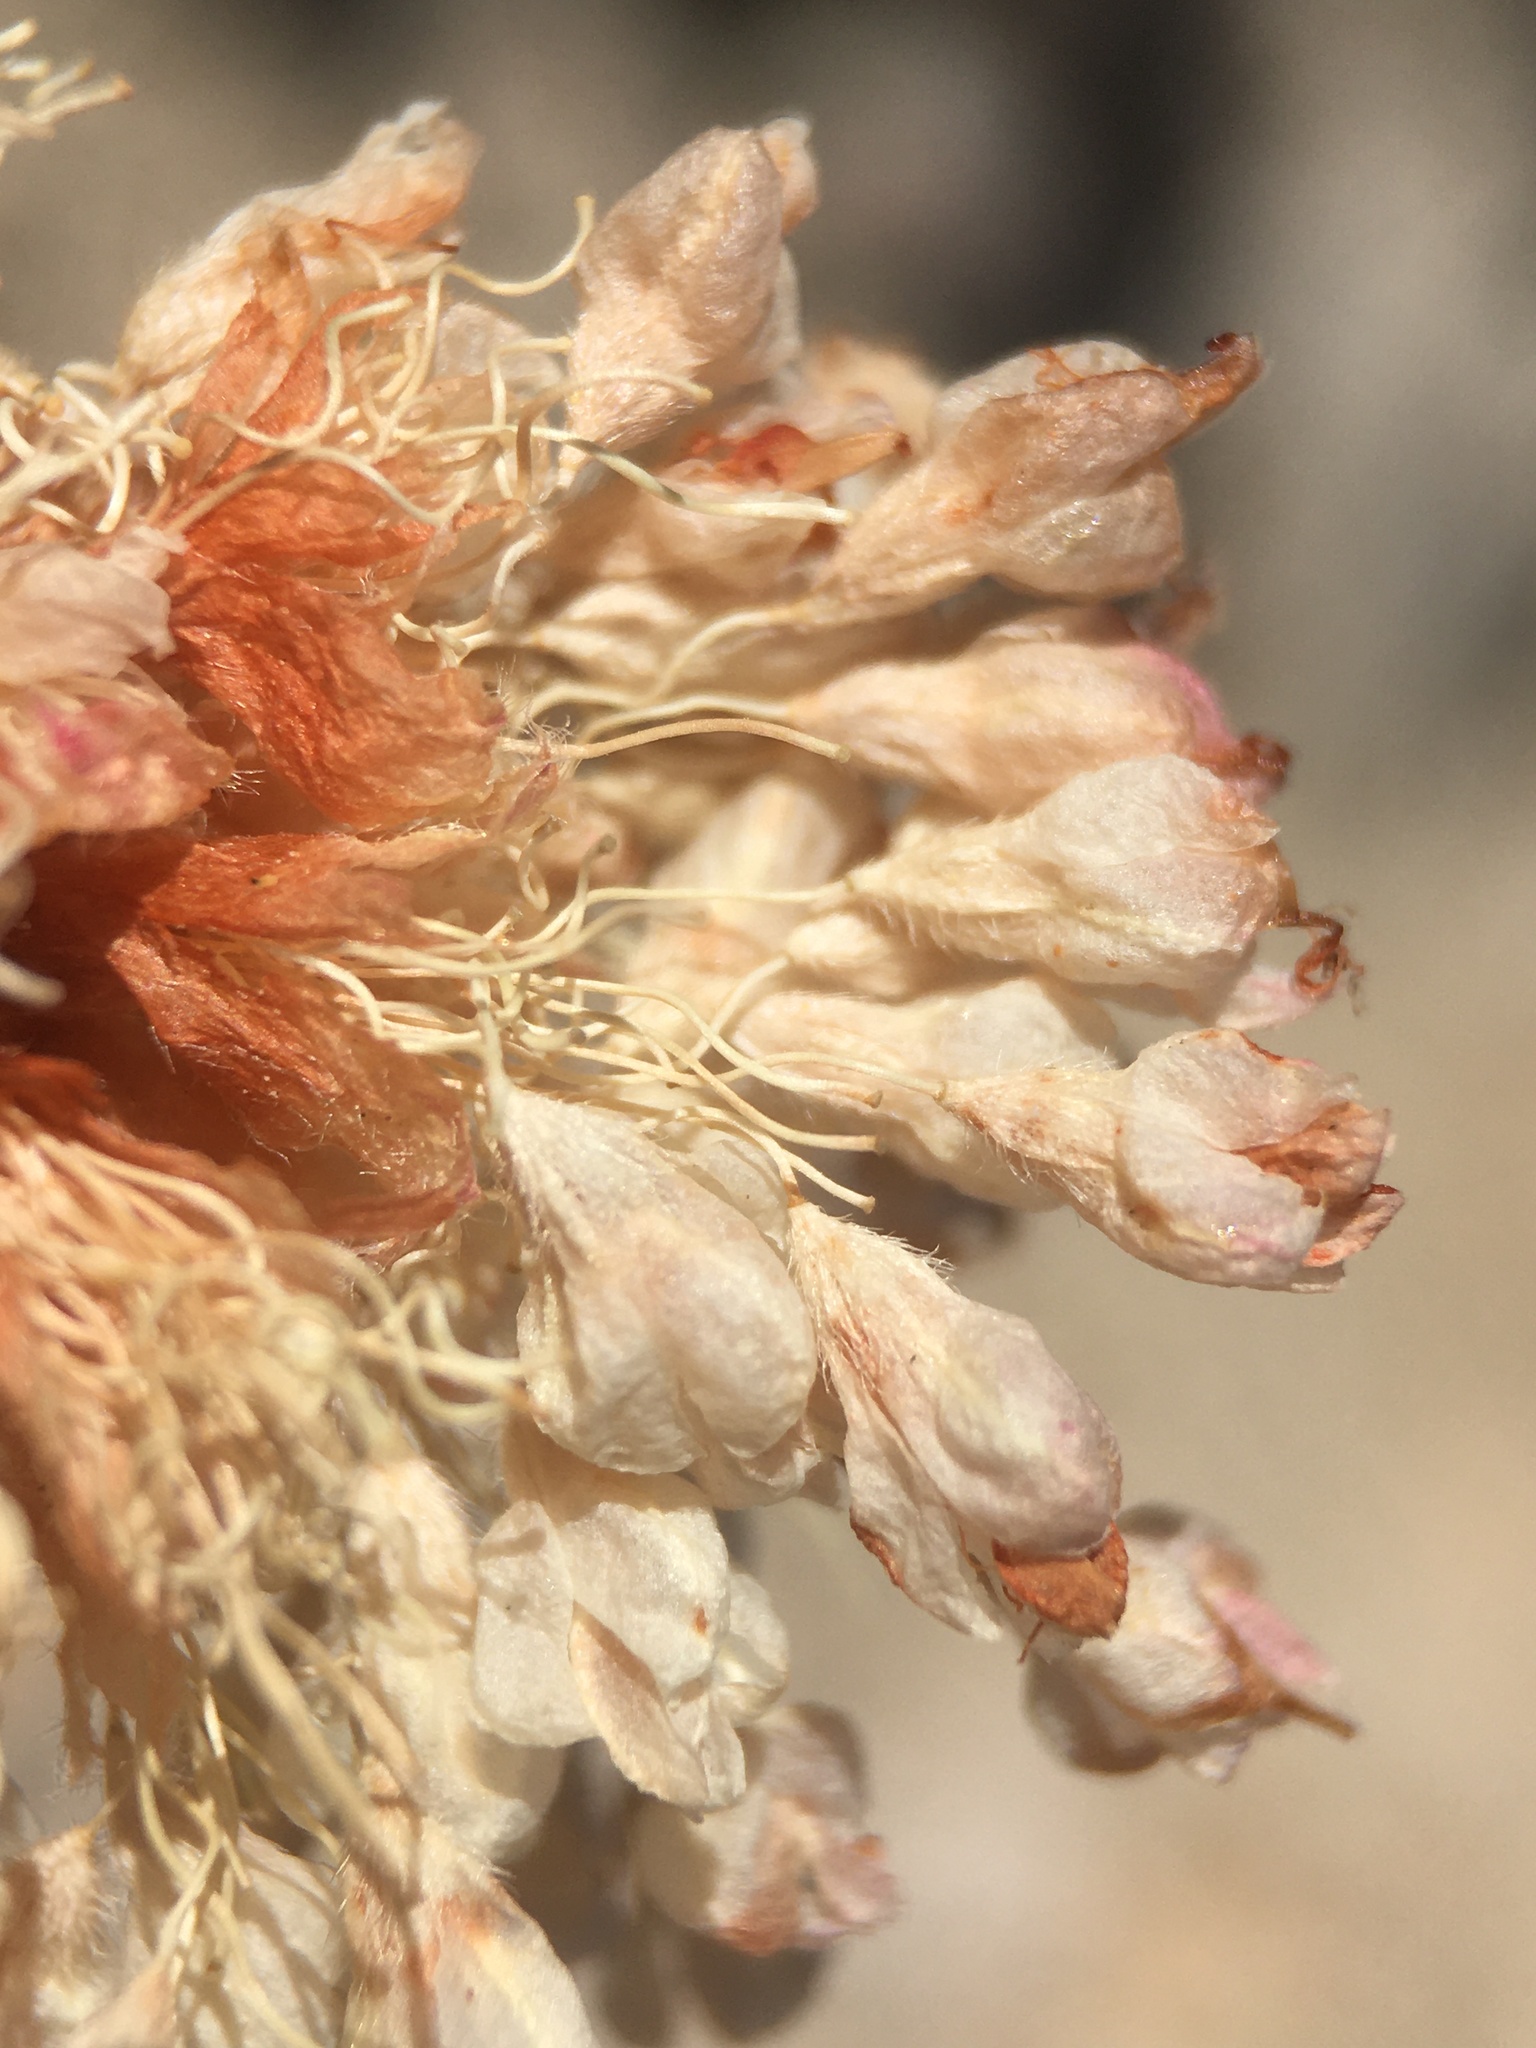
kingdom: Plantae
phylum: Tracheophyta
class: Magnoliopsida
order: Caryophyllales
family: Polygonaceae
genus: Eriogonum
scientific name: Eriogonum latens
